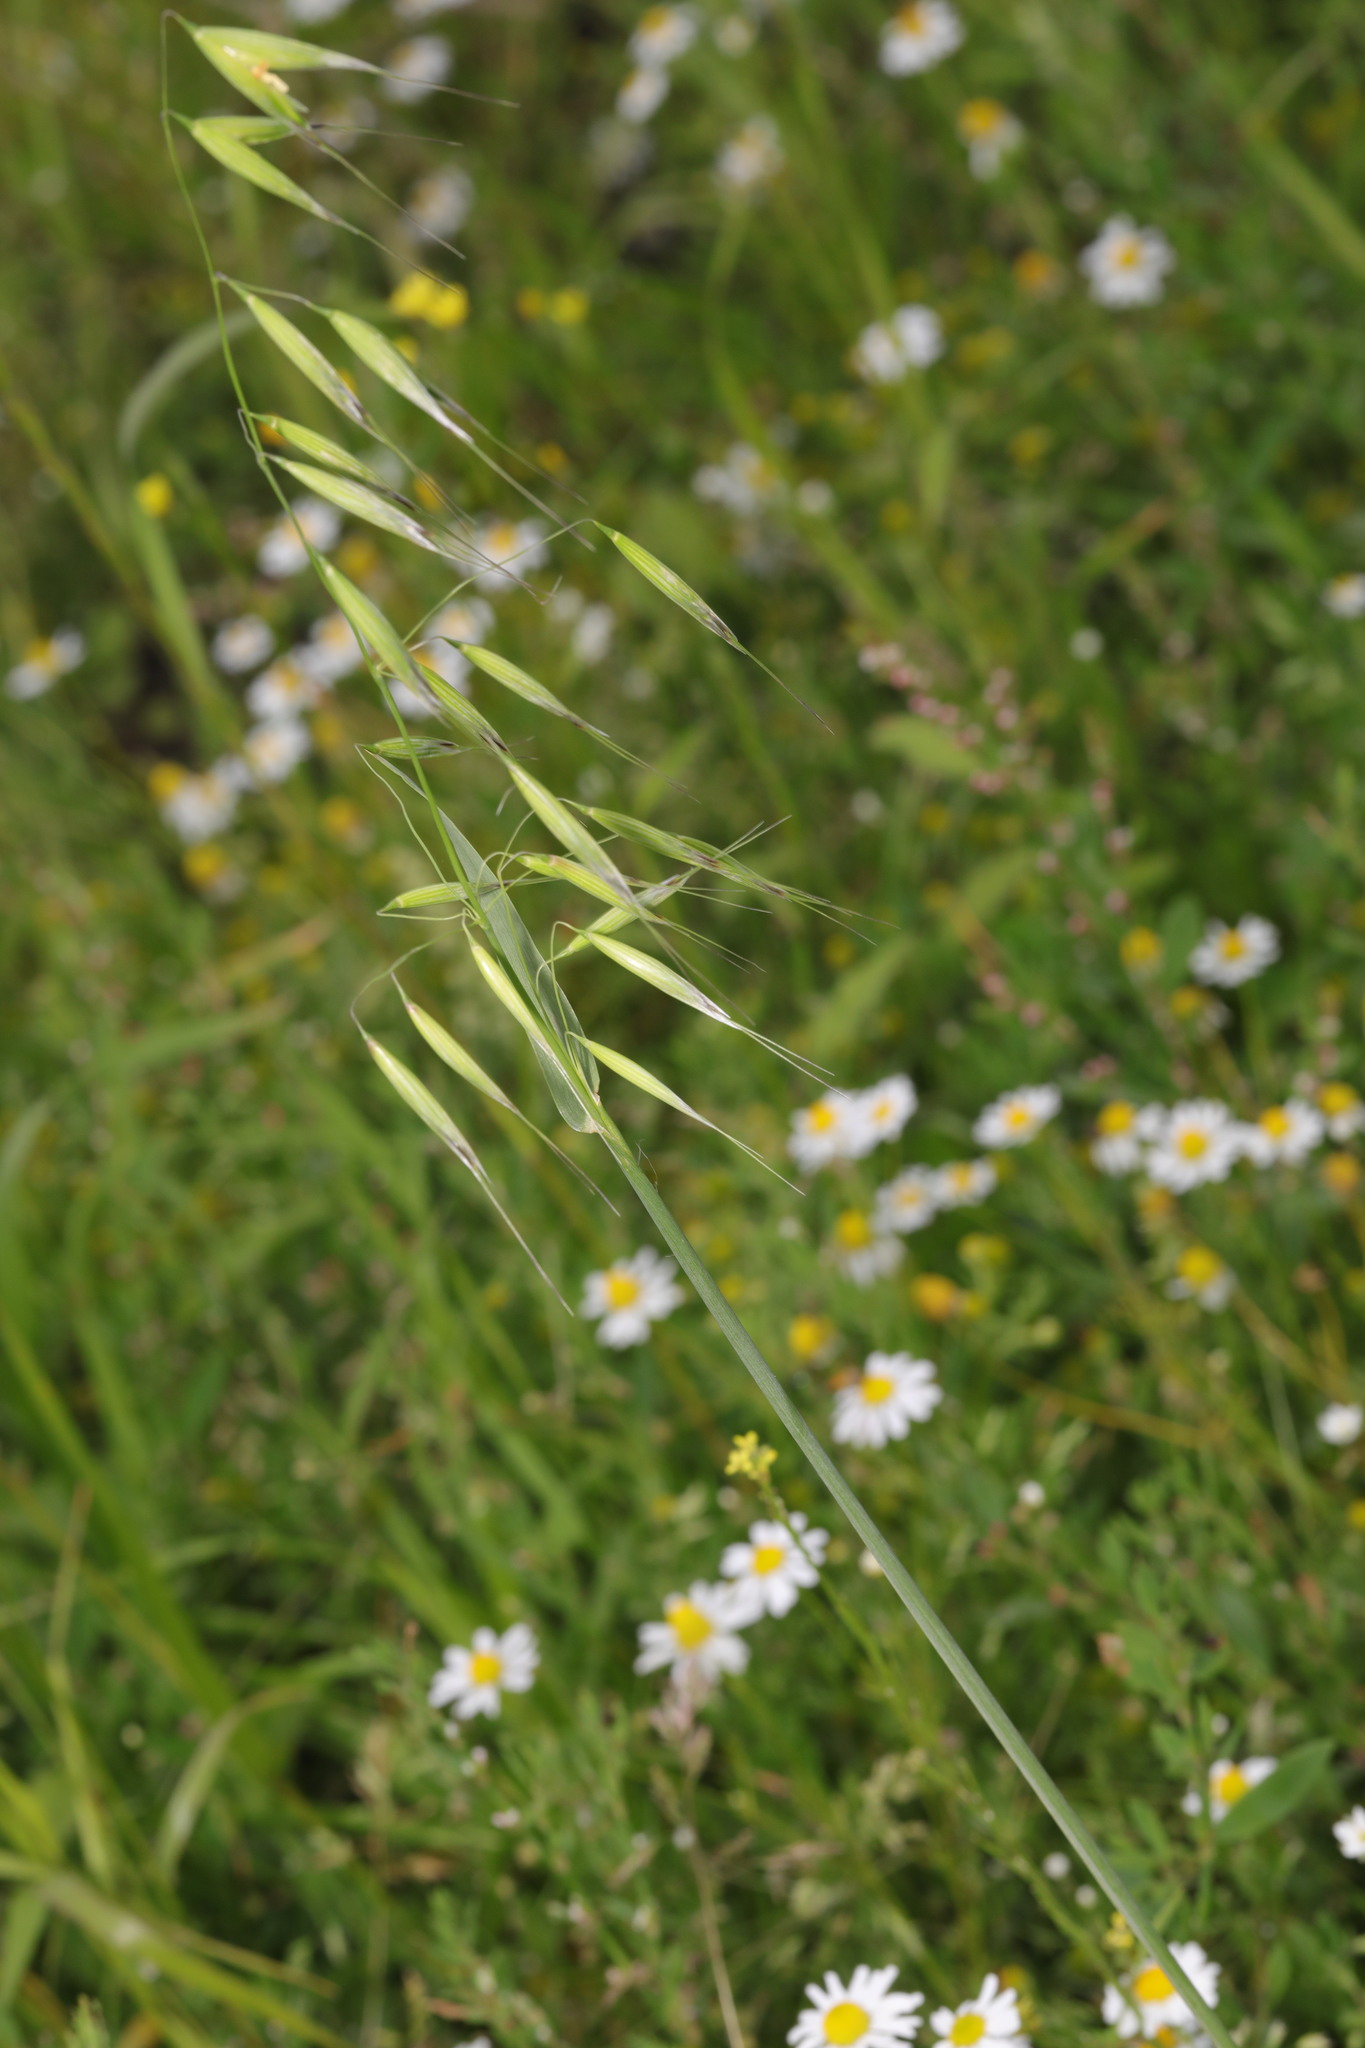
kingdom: Plantae
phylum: Tracheophyta
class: Liliopsida
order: Poales
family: Poaceae
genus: Avena
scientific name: Avena fatua
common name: Wild oat
